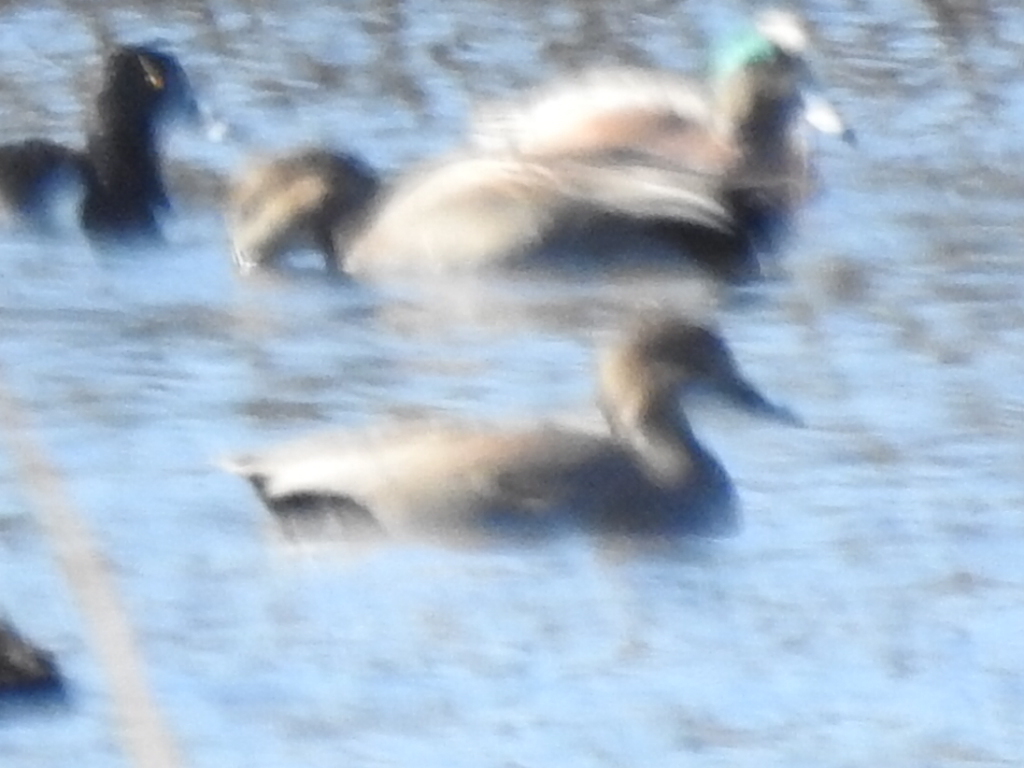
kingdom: Animalia
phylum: Chordata
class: Aves
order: Anseriformes
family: Anatidae
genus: Mareca
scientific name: Mareca strepera
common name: Gadwall
